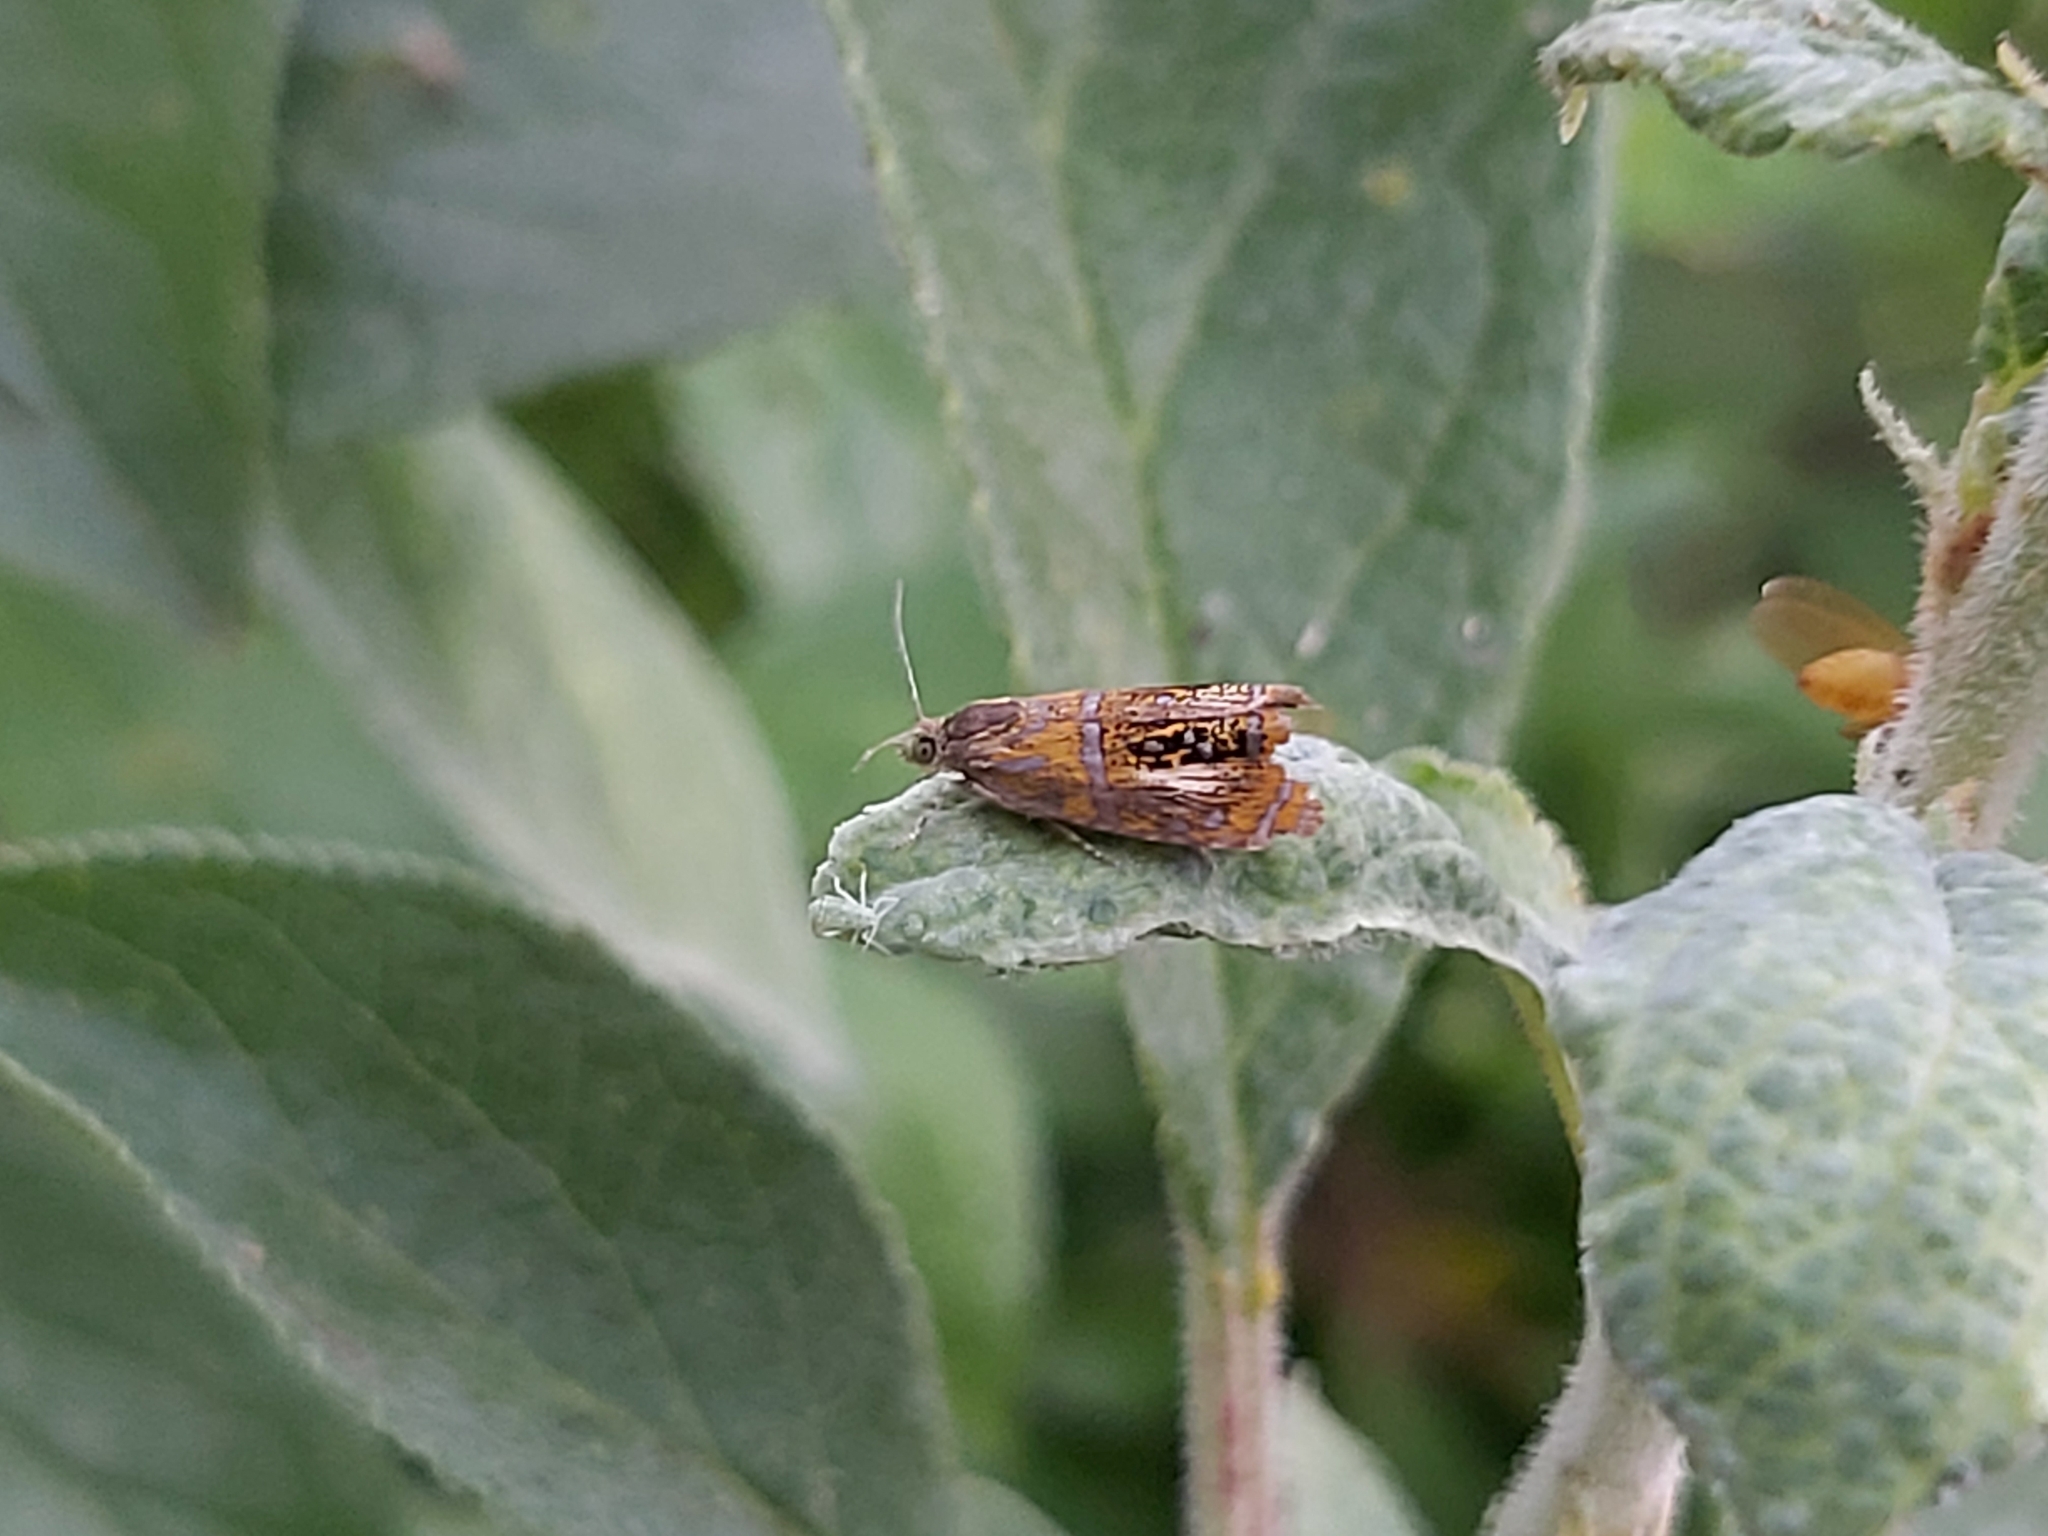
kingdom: Animalia
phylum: Arthropoda
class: Insecta
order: Lepidoptera
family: Tortricidae
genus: Olethreutes
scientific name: Olethreutes arcuella
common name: Arched marble
